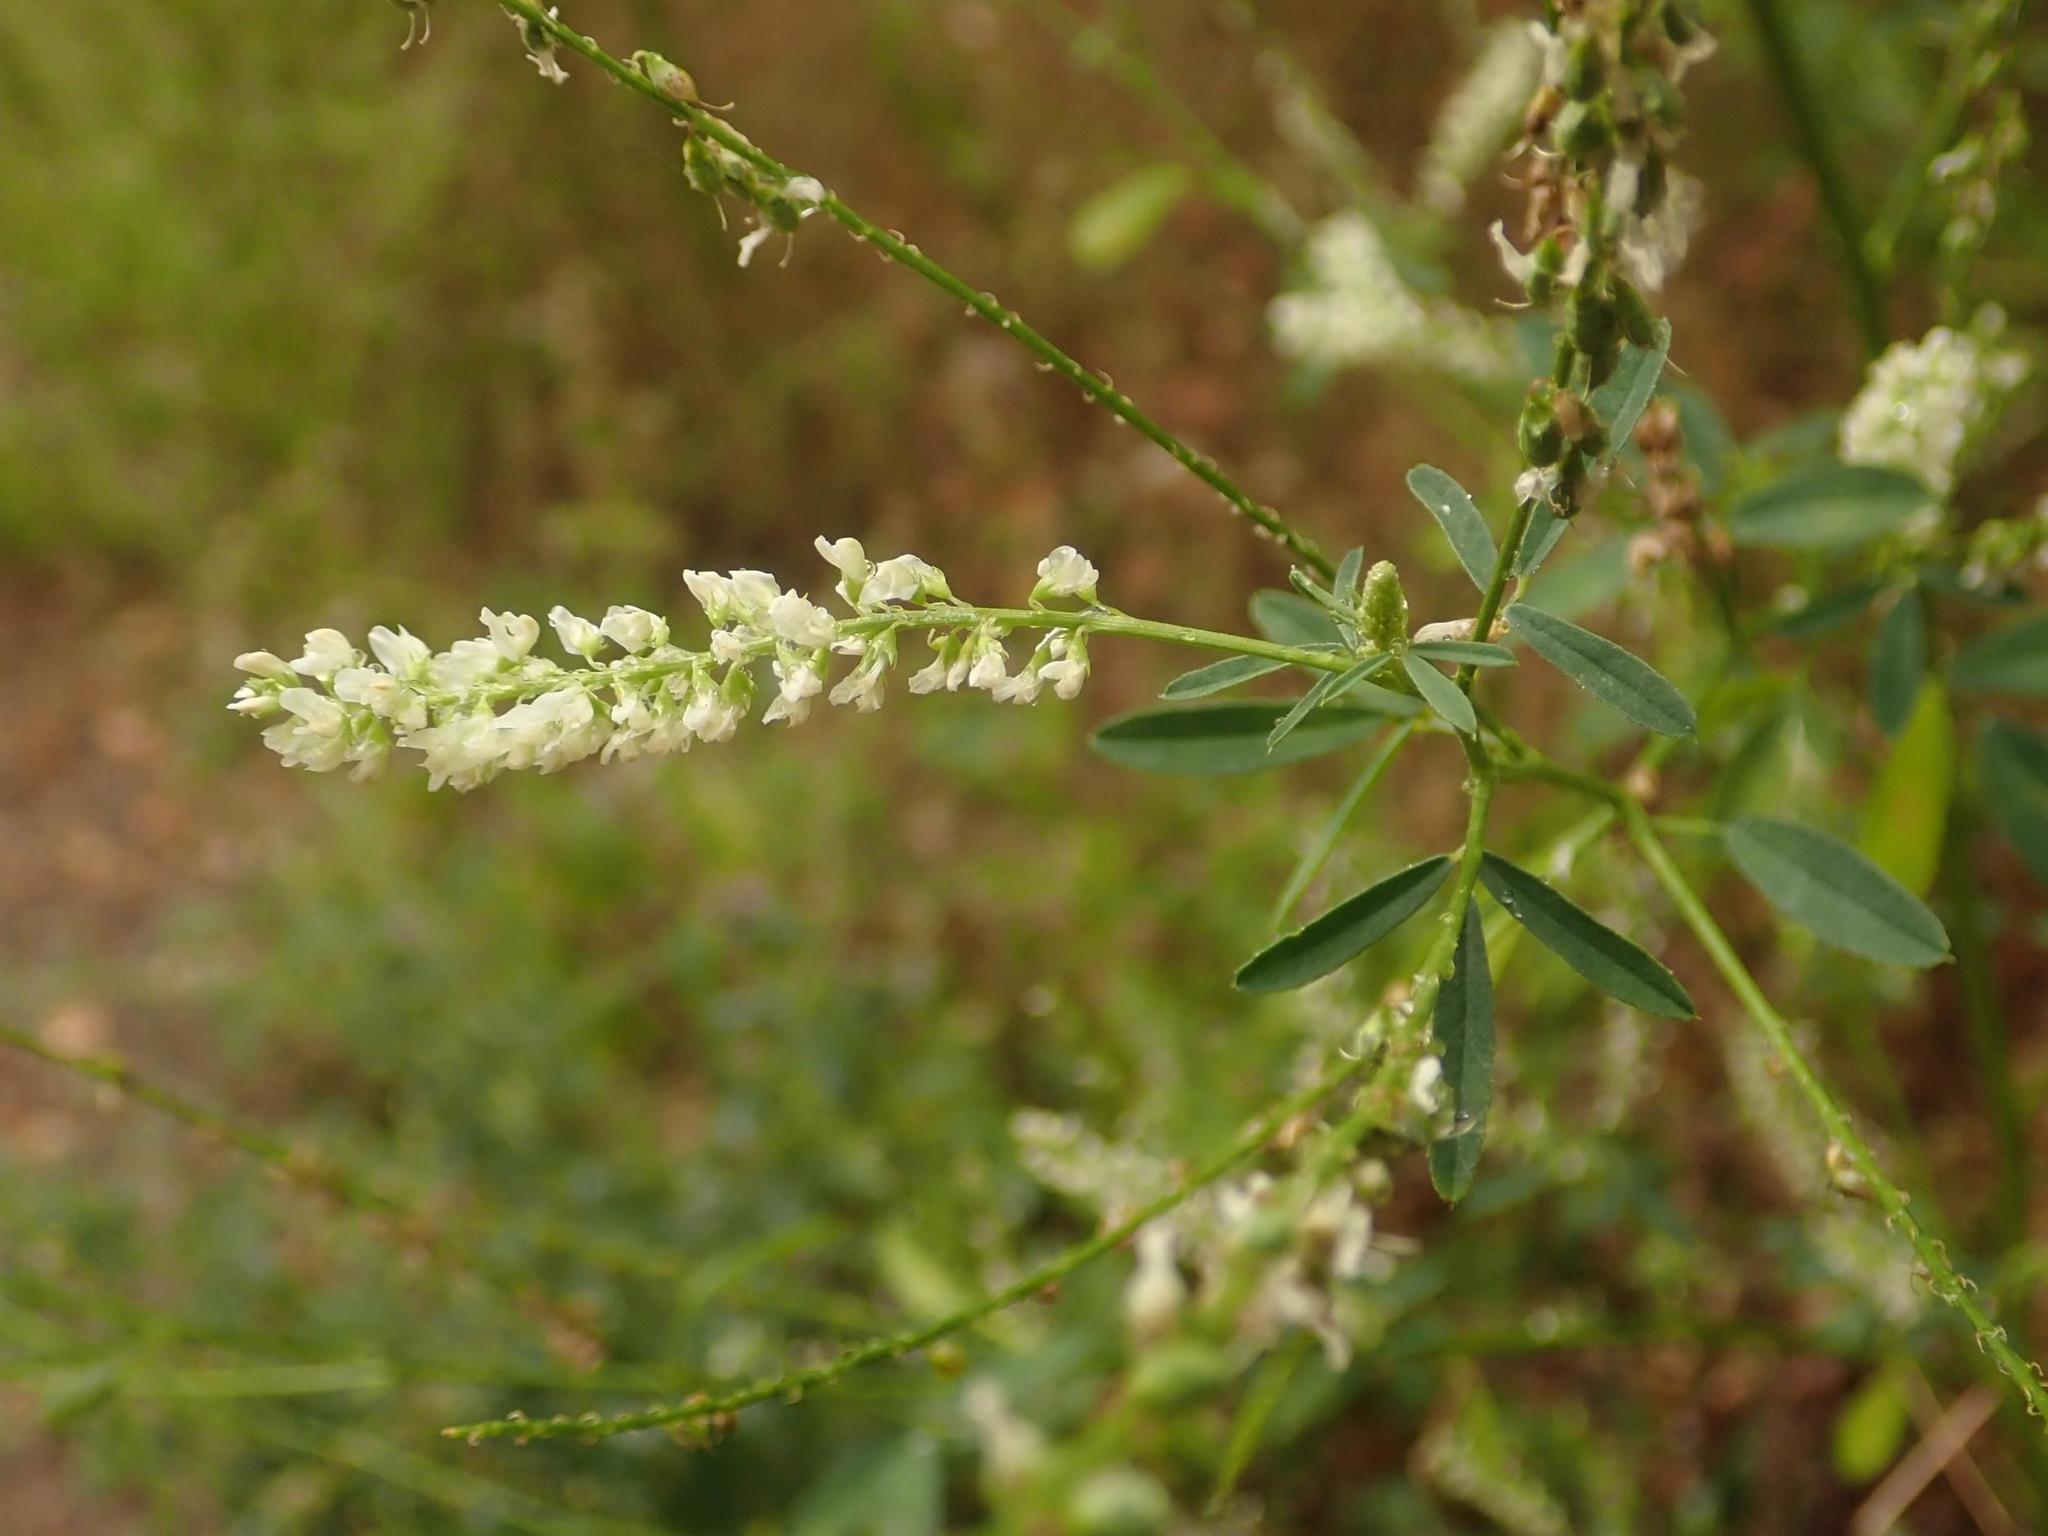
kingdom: Plantae
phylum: Tracheophyta
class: Magnoliopsida
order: Fabales
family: Fabaceae
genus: Melilotus
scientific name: Melilotus albus
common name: White melilot
